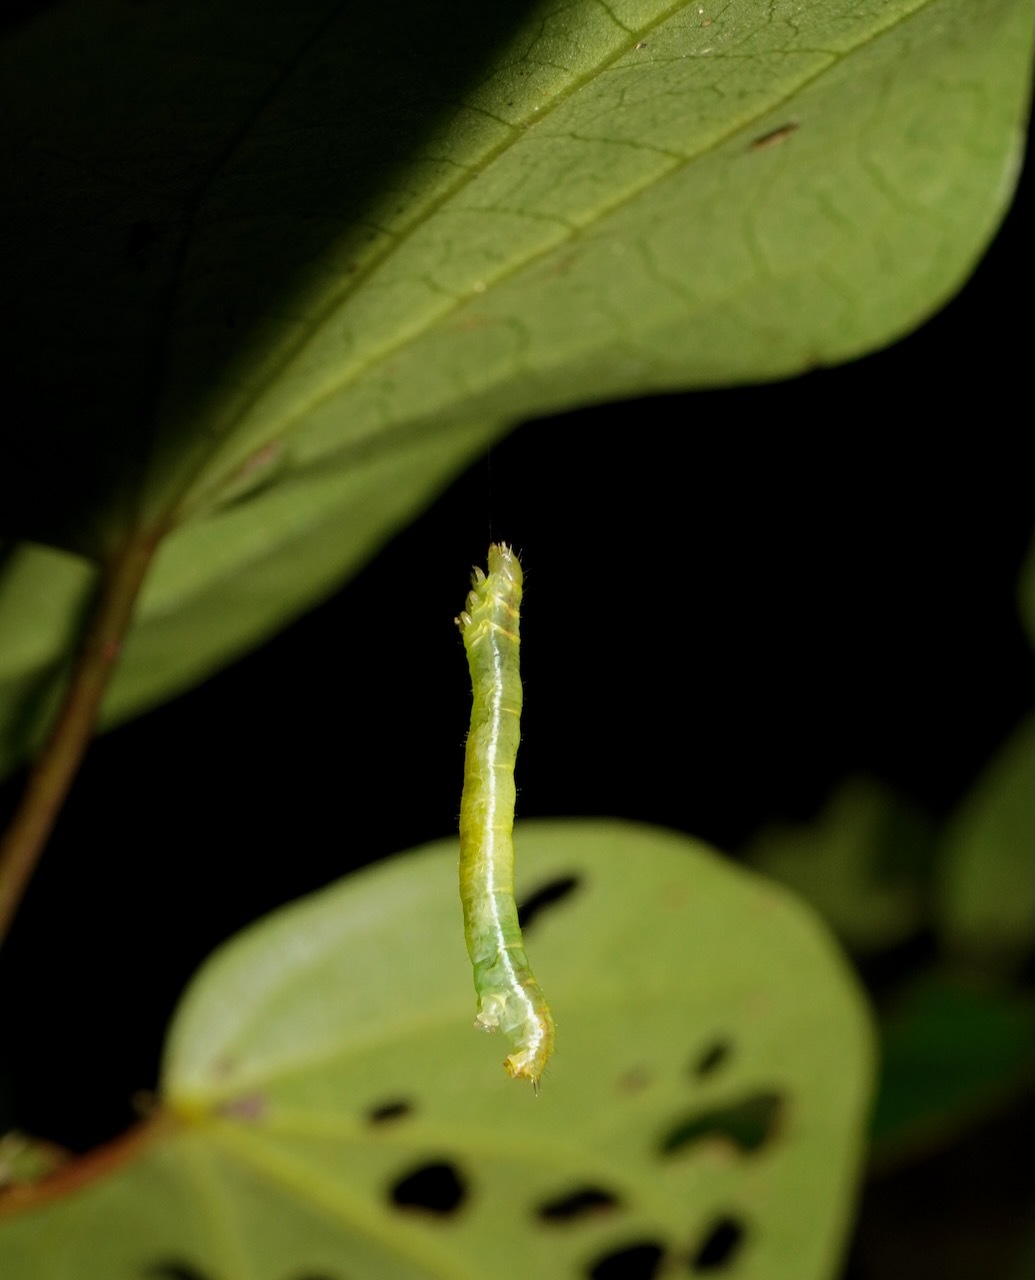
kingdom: Animalia
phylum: Arthropoda
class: Insecta
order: Lepidoptera
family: Geometridae
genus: Cleora
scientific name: Cleora scriptaria
